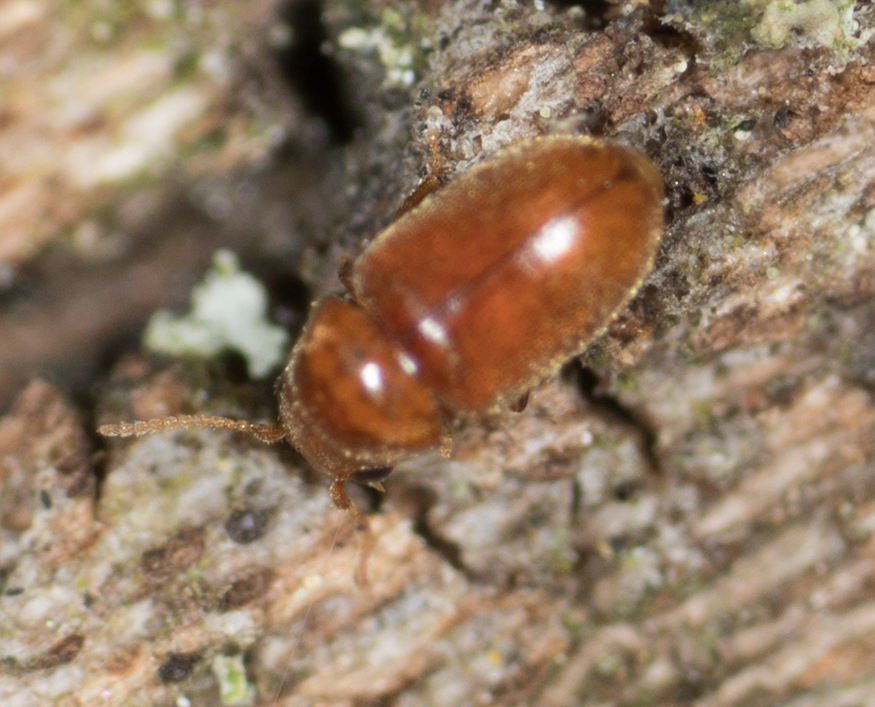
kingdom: Animalia
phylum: Arthropoda
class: Insecta
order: Coleoptera
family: Anobiidae
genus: Lasioderma
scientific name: Lasioderma serricorne
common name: Cigarette beetle
